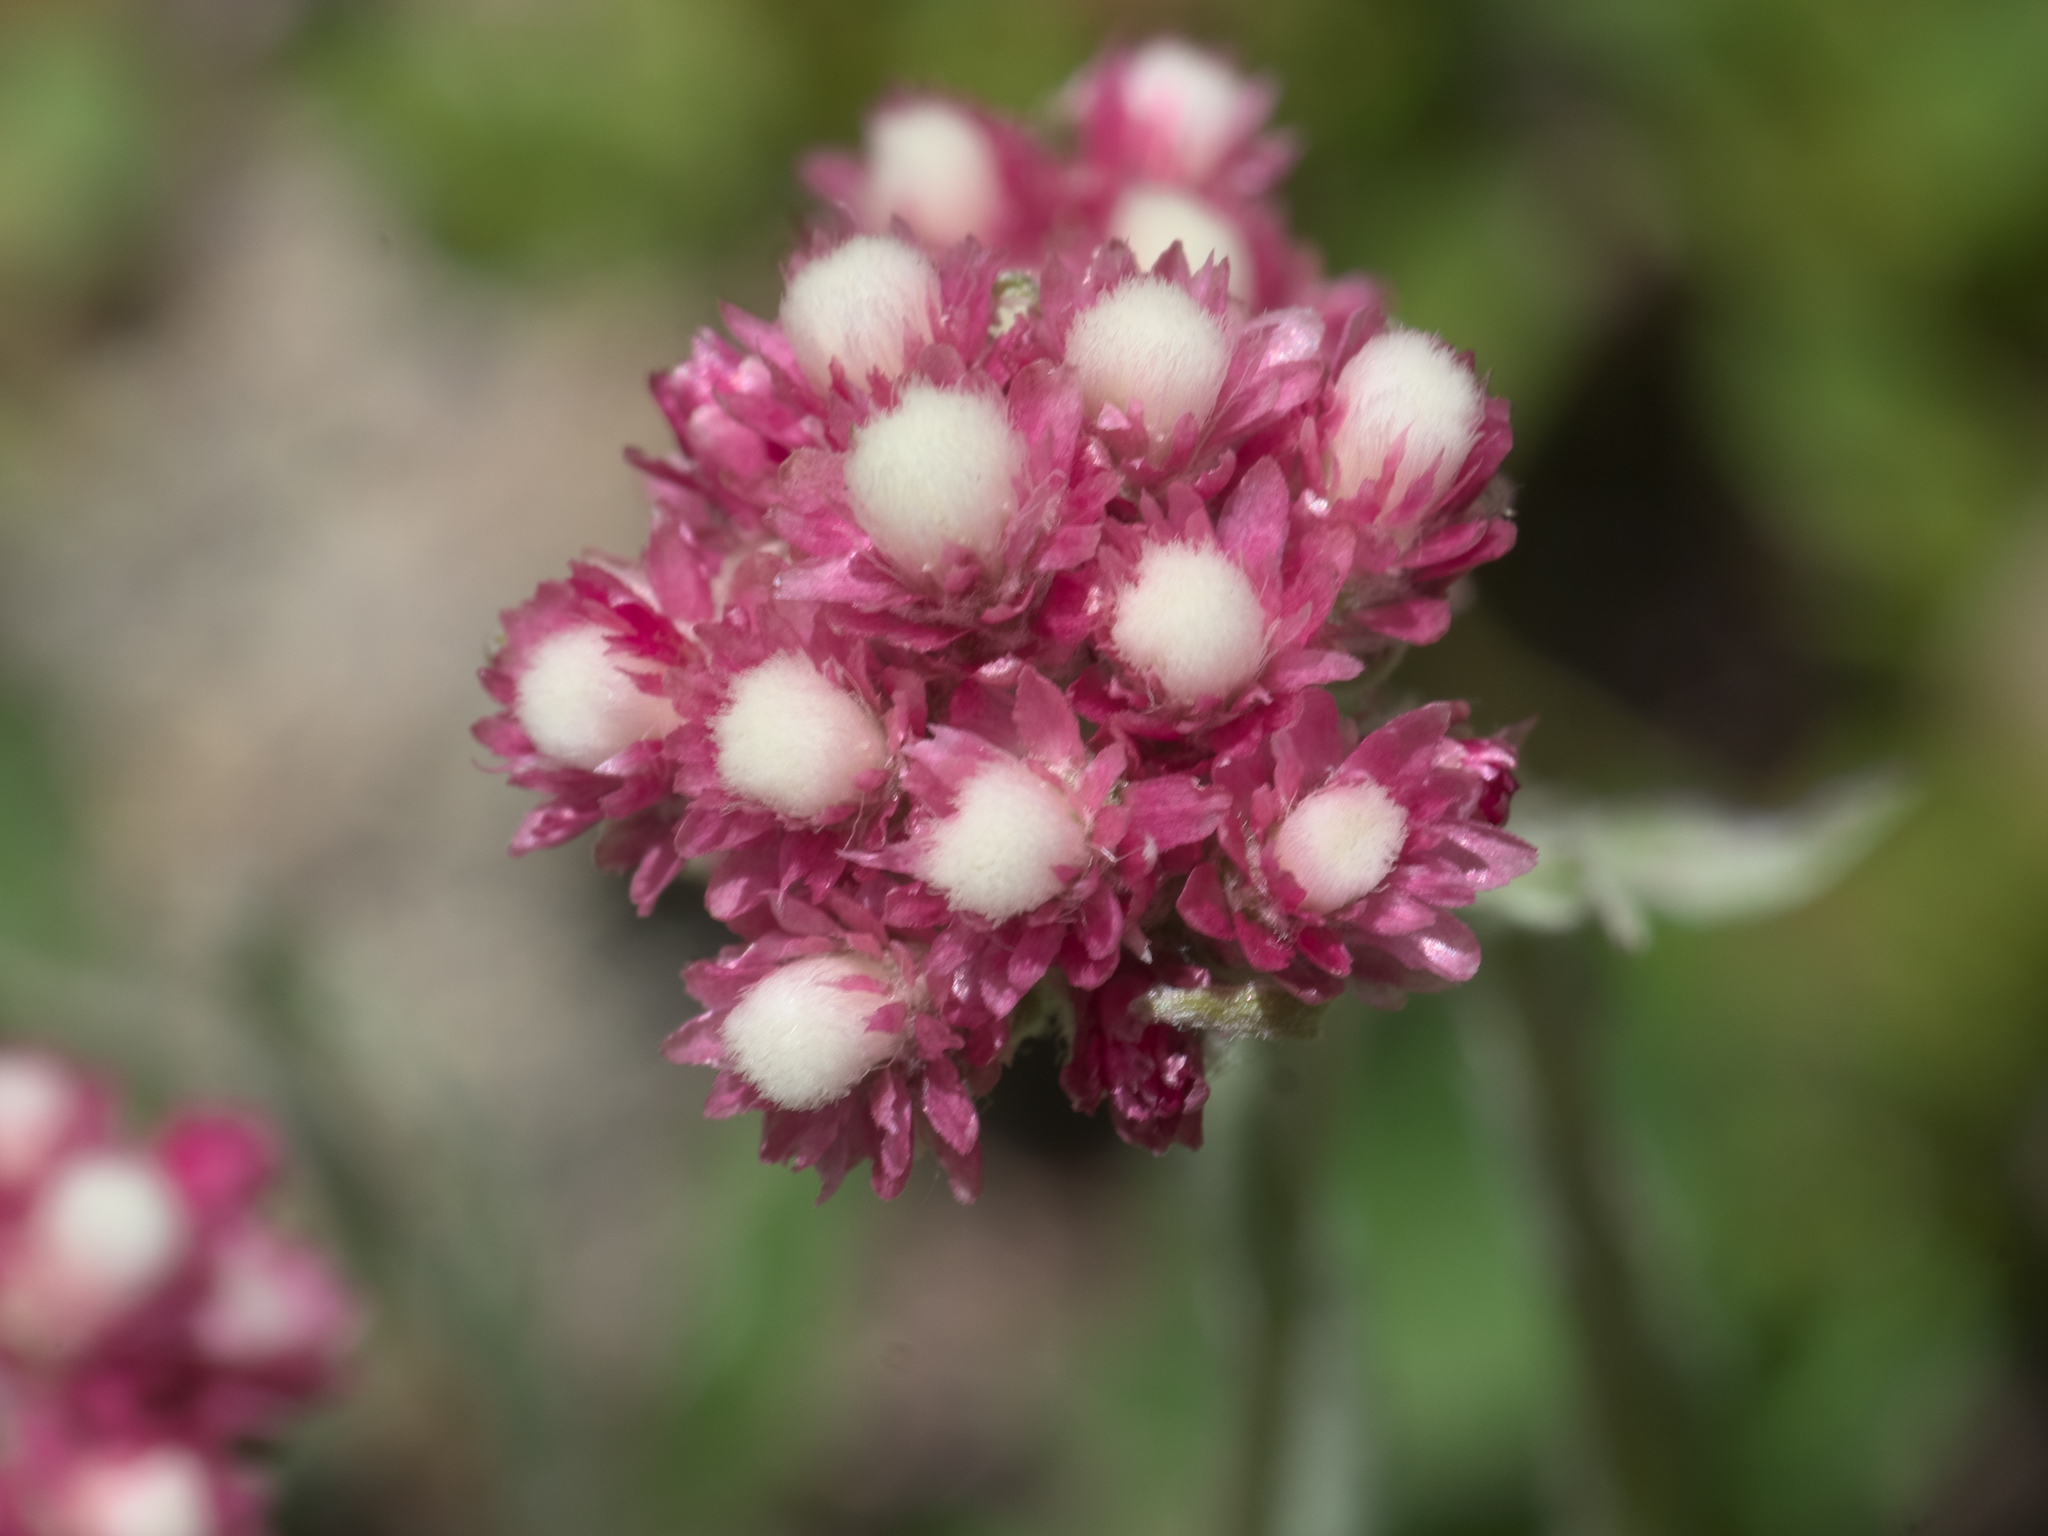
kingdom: Plantae
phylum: Tracheophyta
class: Magnoliopsida
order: Asterales
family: Asteraceae
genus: Antennaria
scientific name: Antennaria rosea
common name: Rosy pussytoes
